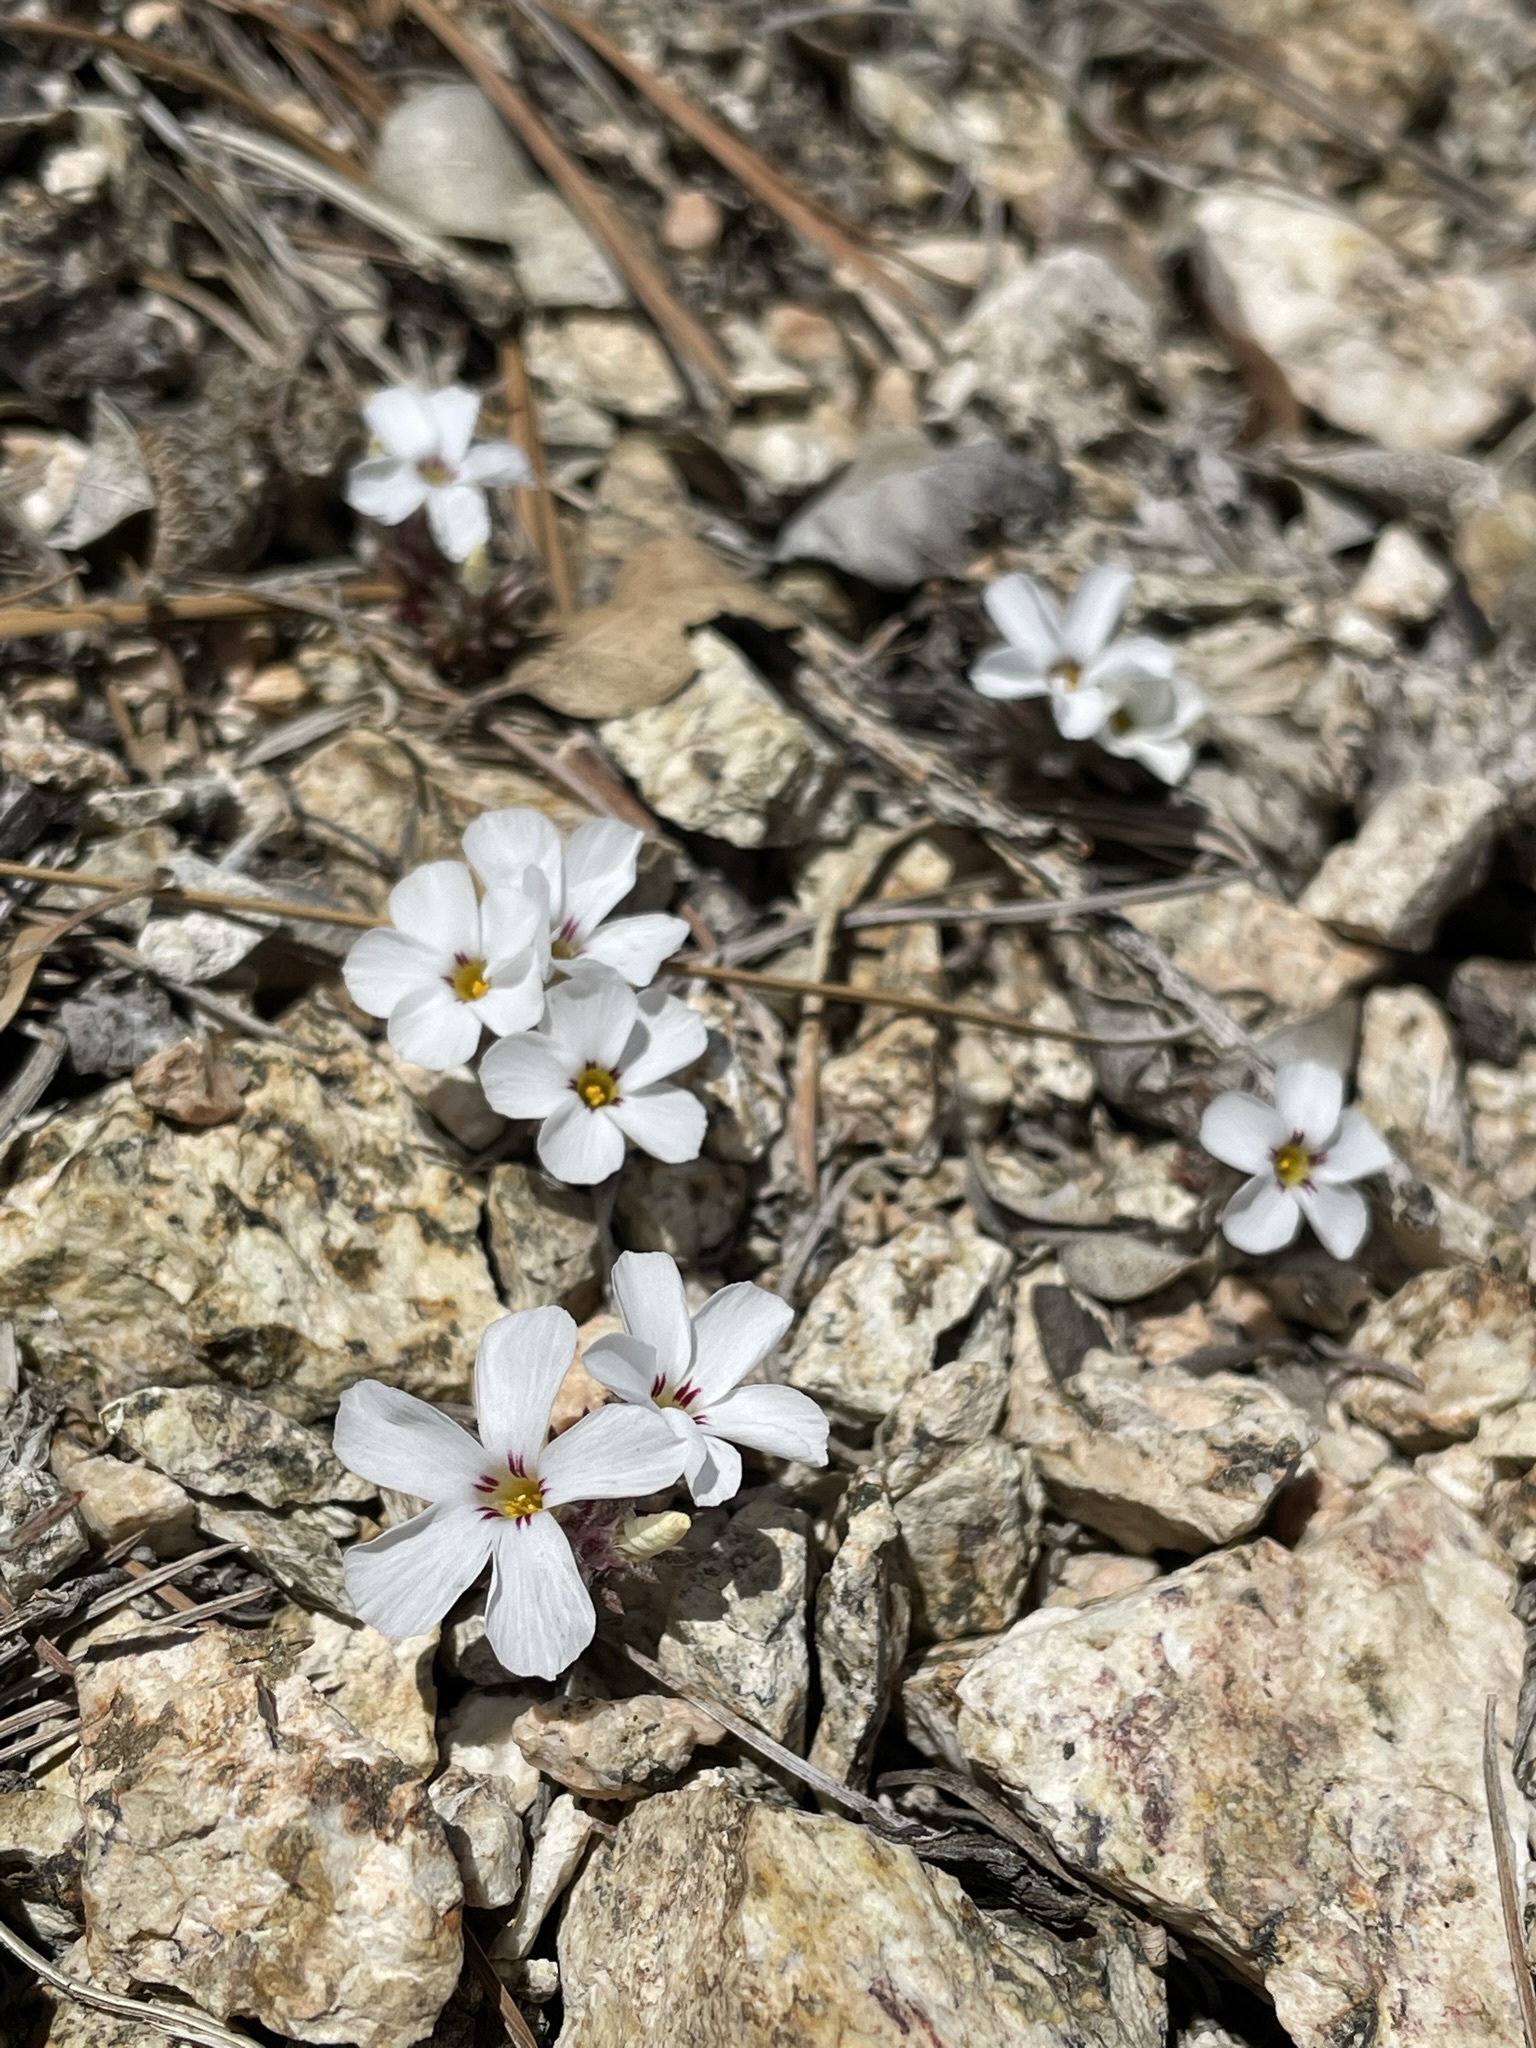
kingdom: Plantae
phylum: Tracheophyta
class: Magnoliopsida
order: Ericales
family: Polemoniaceae
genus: Linanthus
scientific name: Linanthus concinnus
